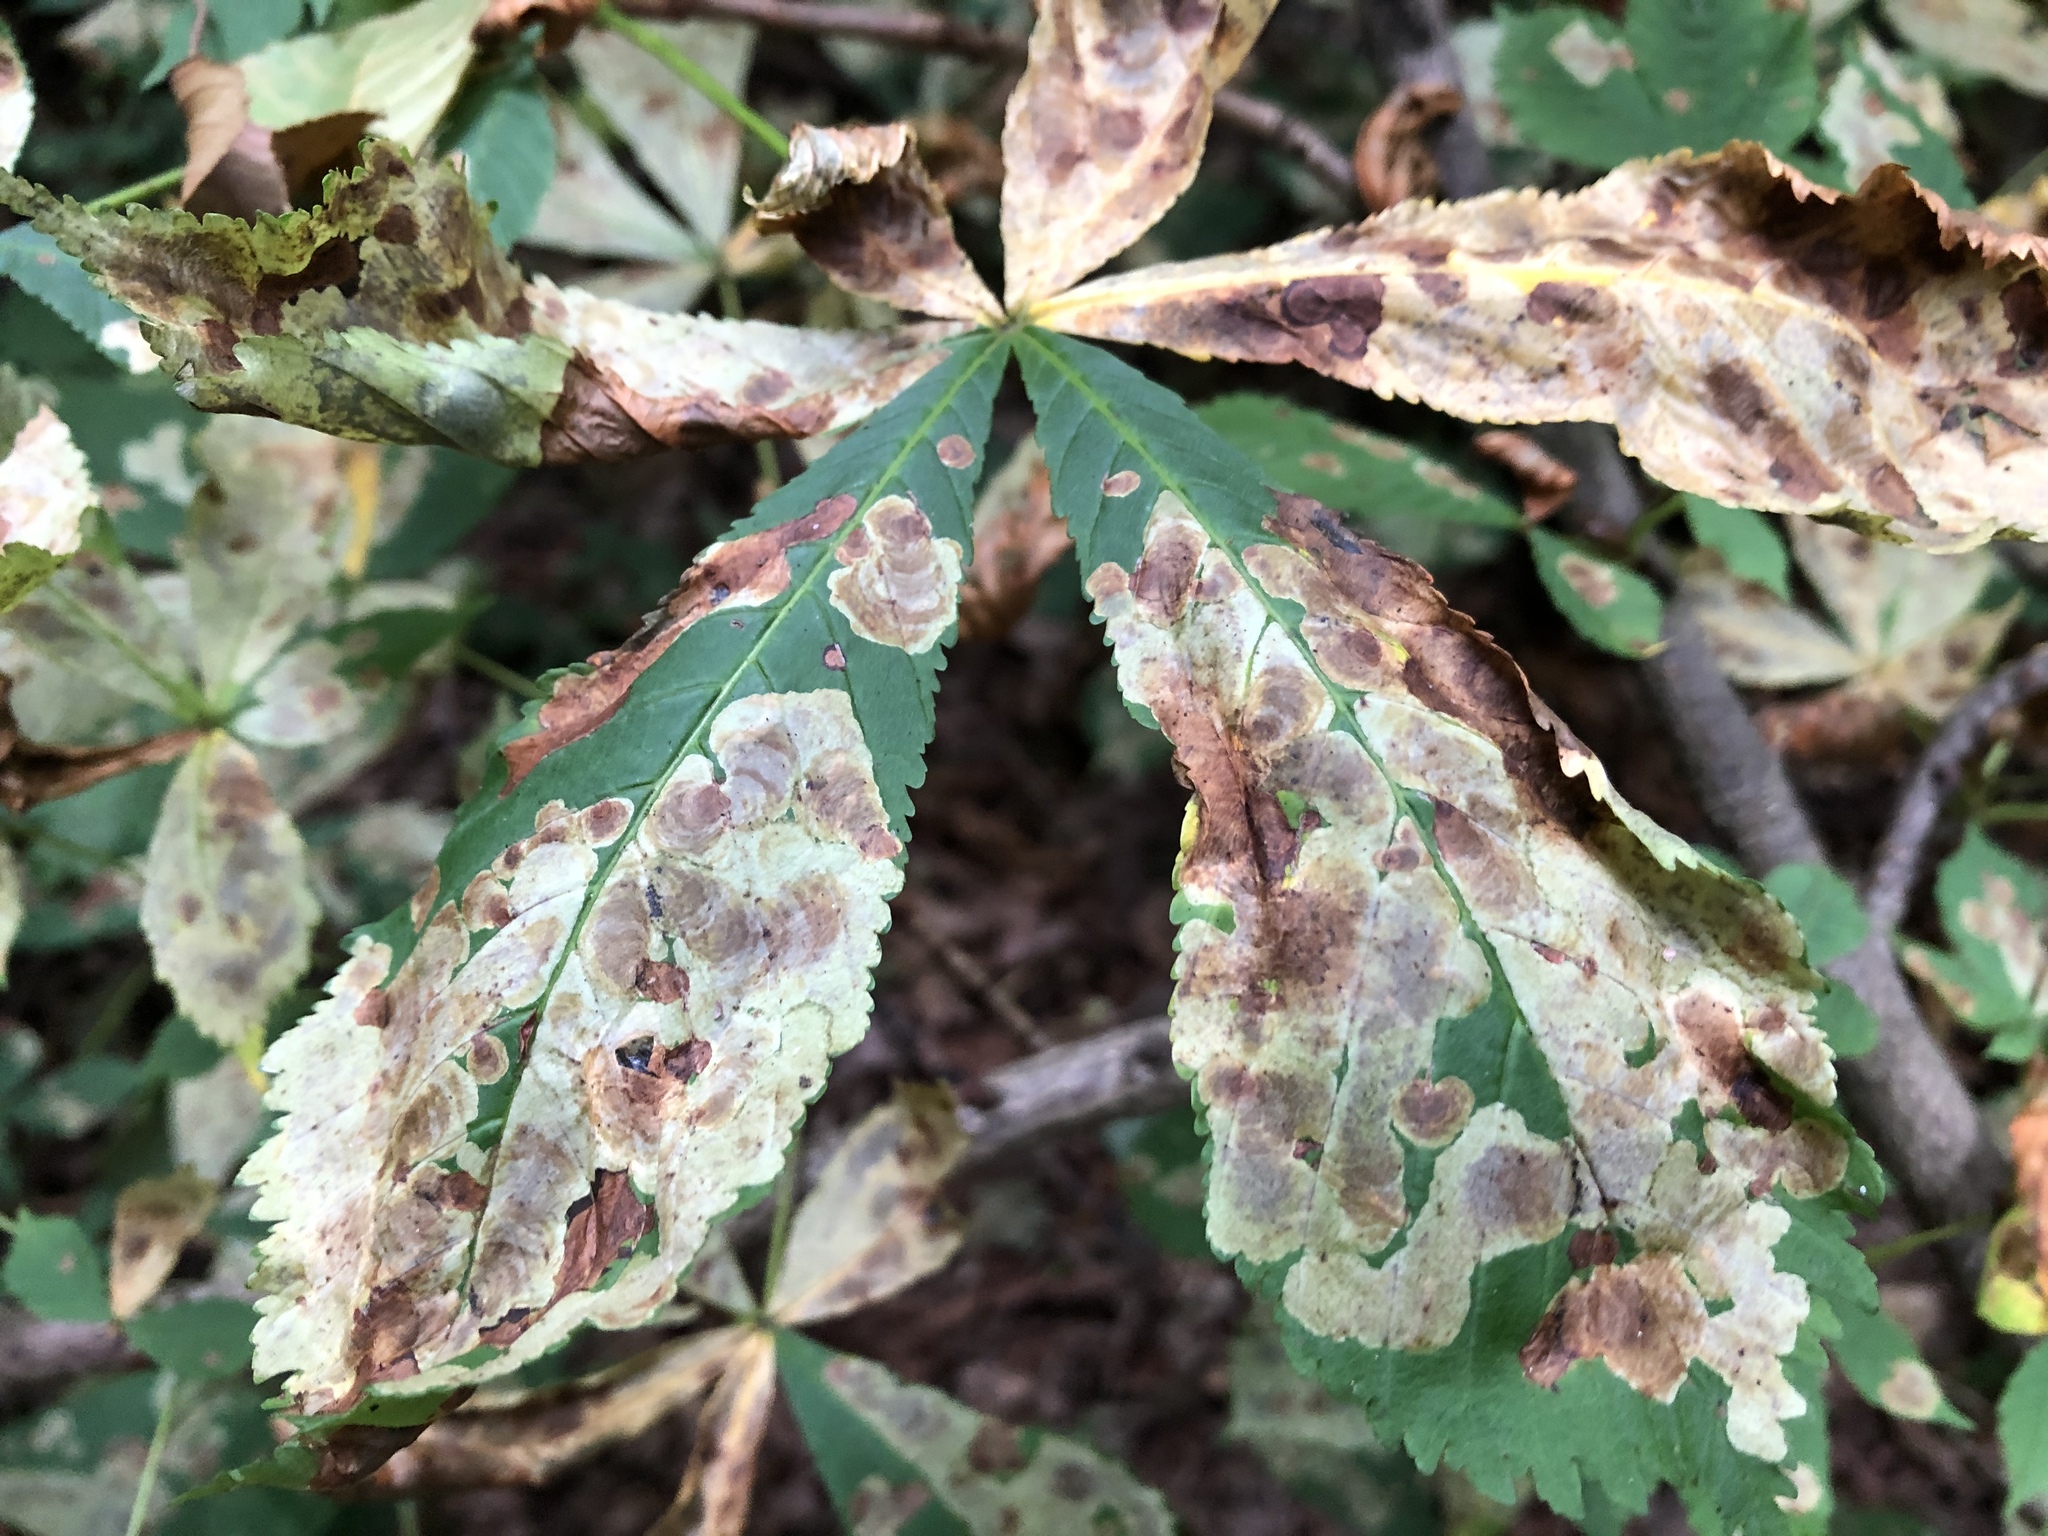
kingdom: Animalia
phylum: Arthropoda
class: Insecta
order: Lepidoptera
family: Gracillariidae
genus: Cameraria
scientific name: Cameraria ohridella
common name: Horse-chestnut leaf-miner
